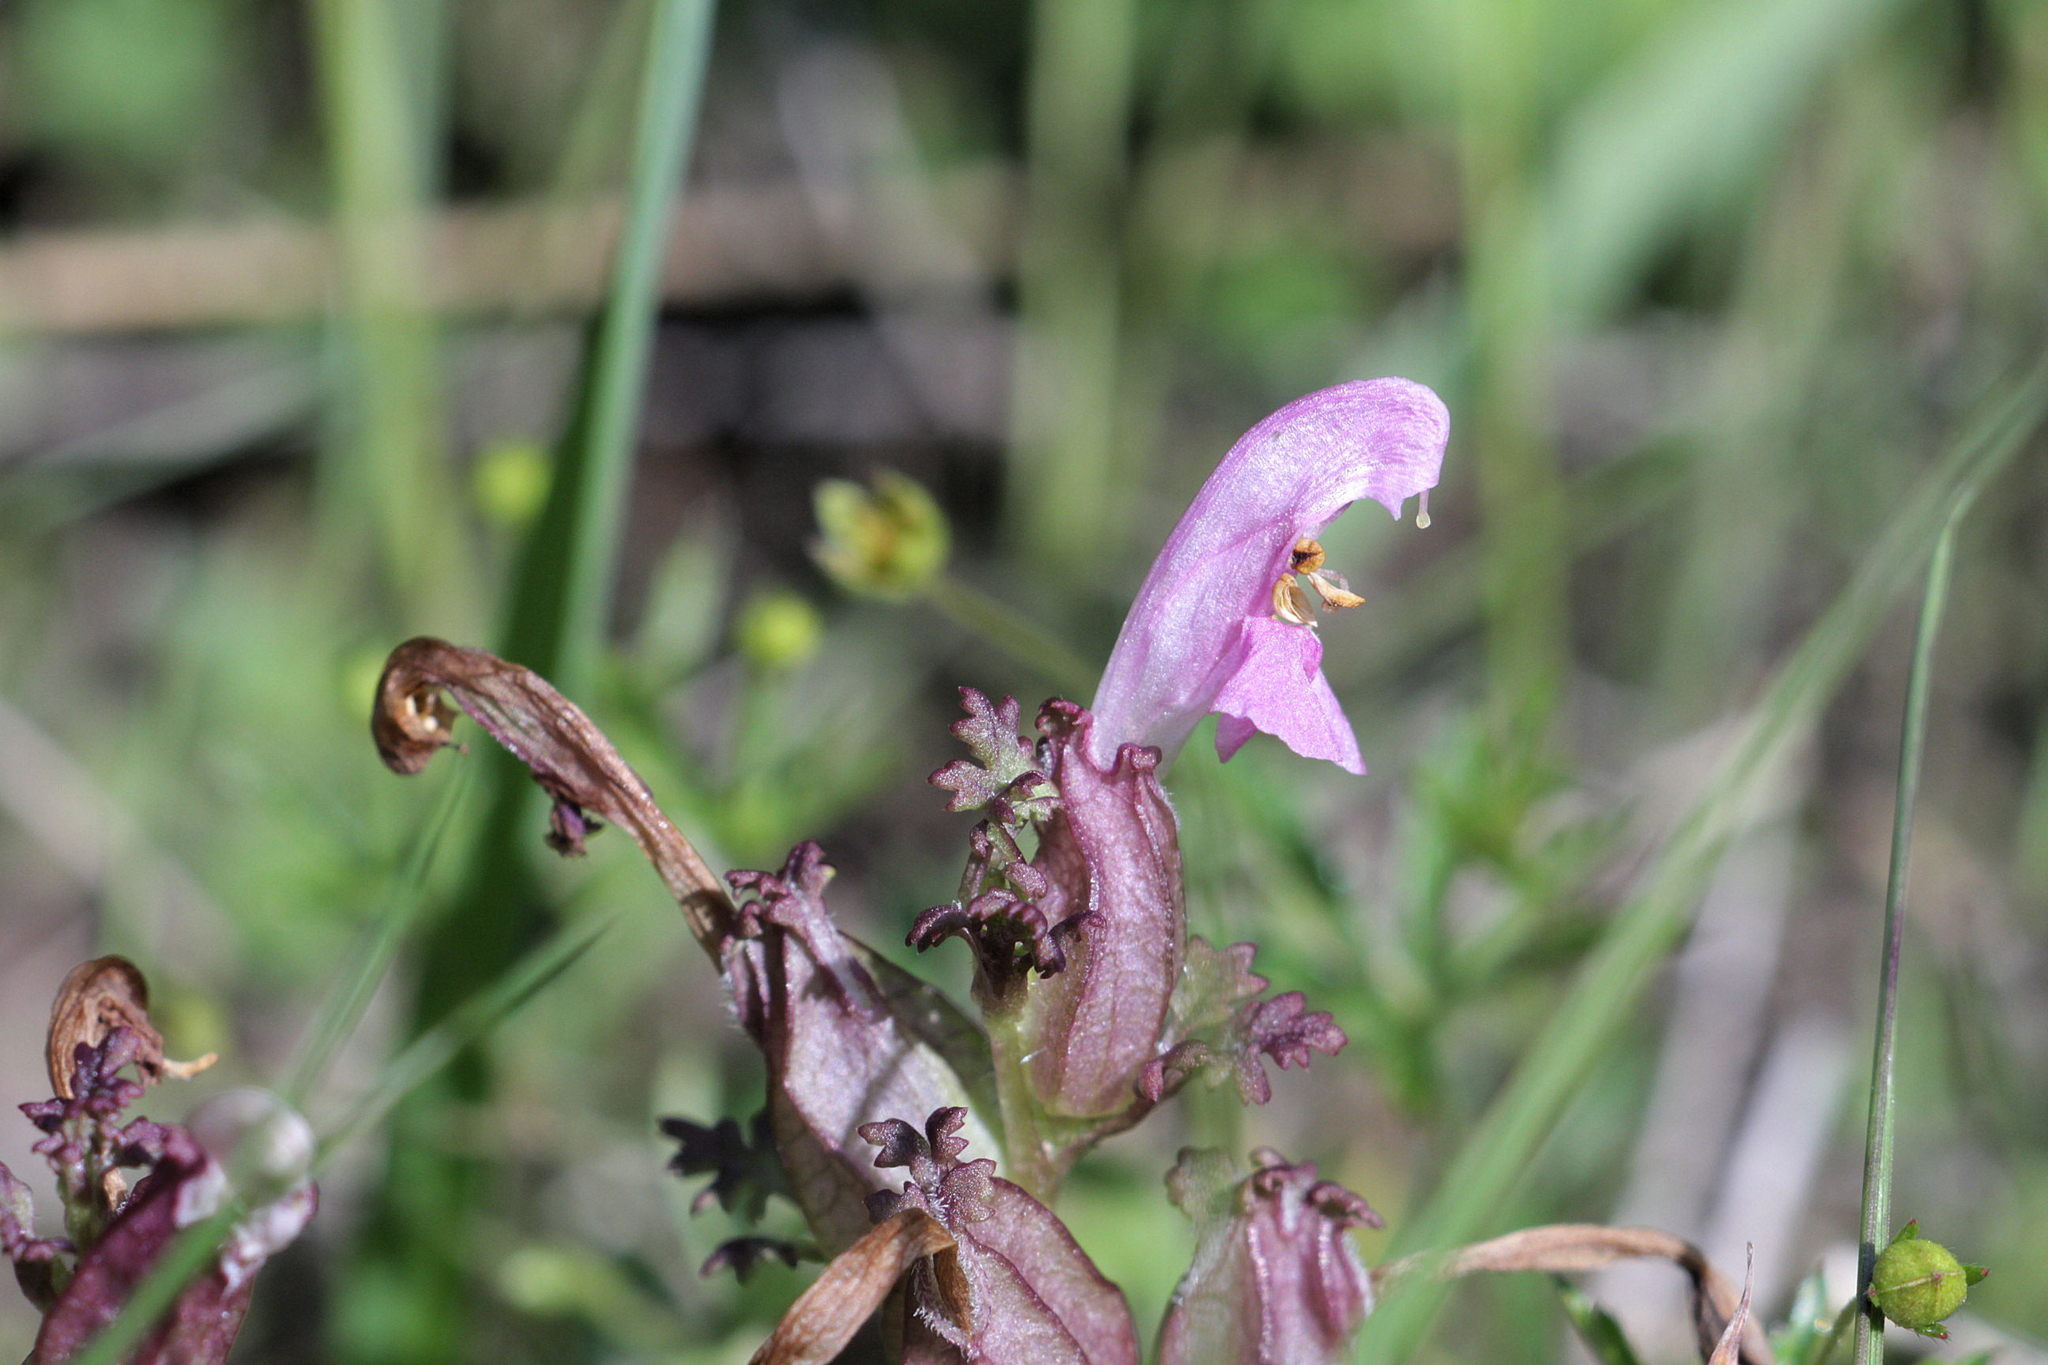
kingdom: Plantae
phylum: Tracheophyta
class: Magnoliopsida
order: Lamiales
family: Orobanchaceae
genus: Pedicularis
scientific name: Pedicularis sylvatica
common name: Lousewort
